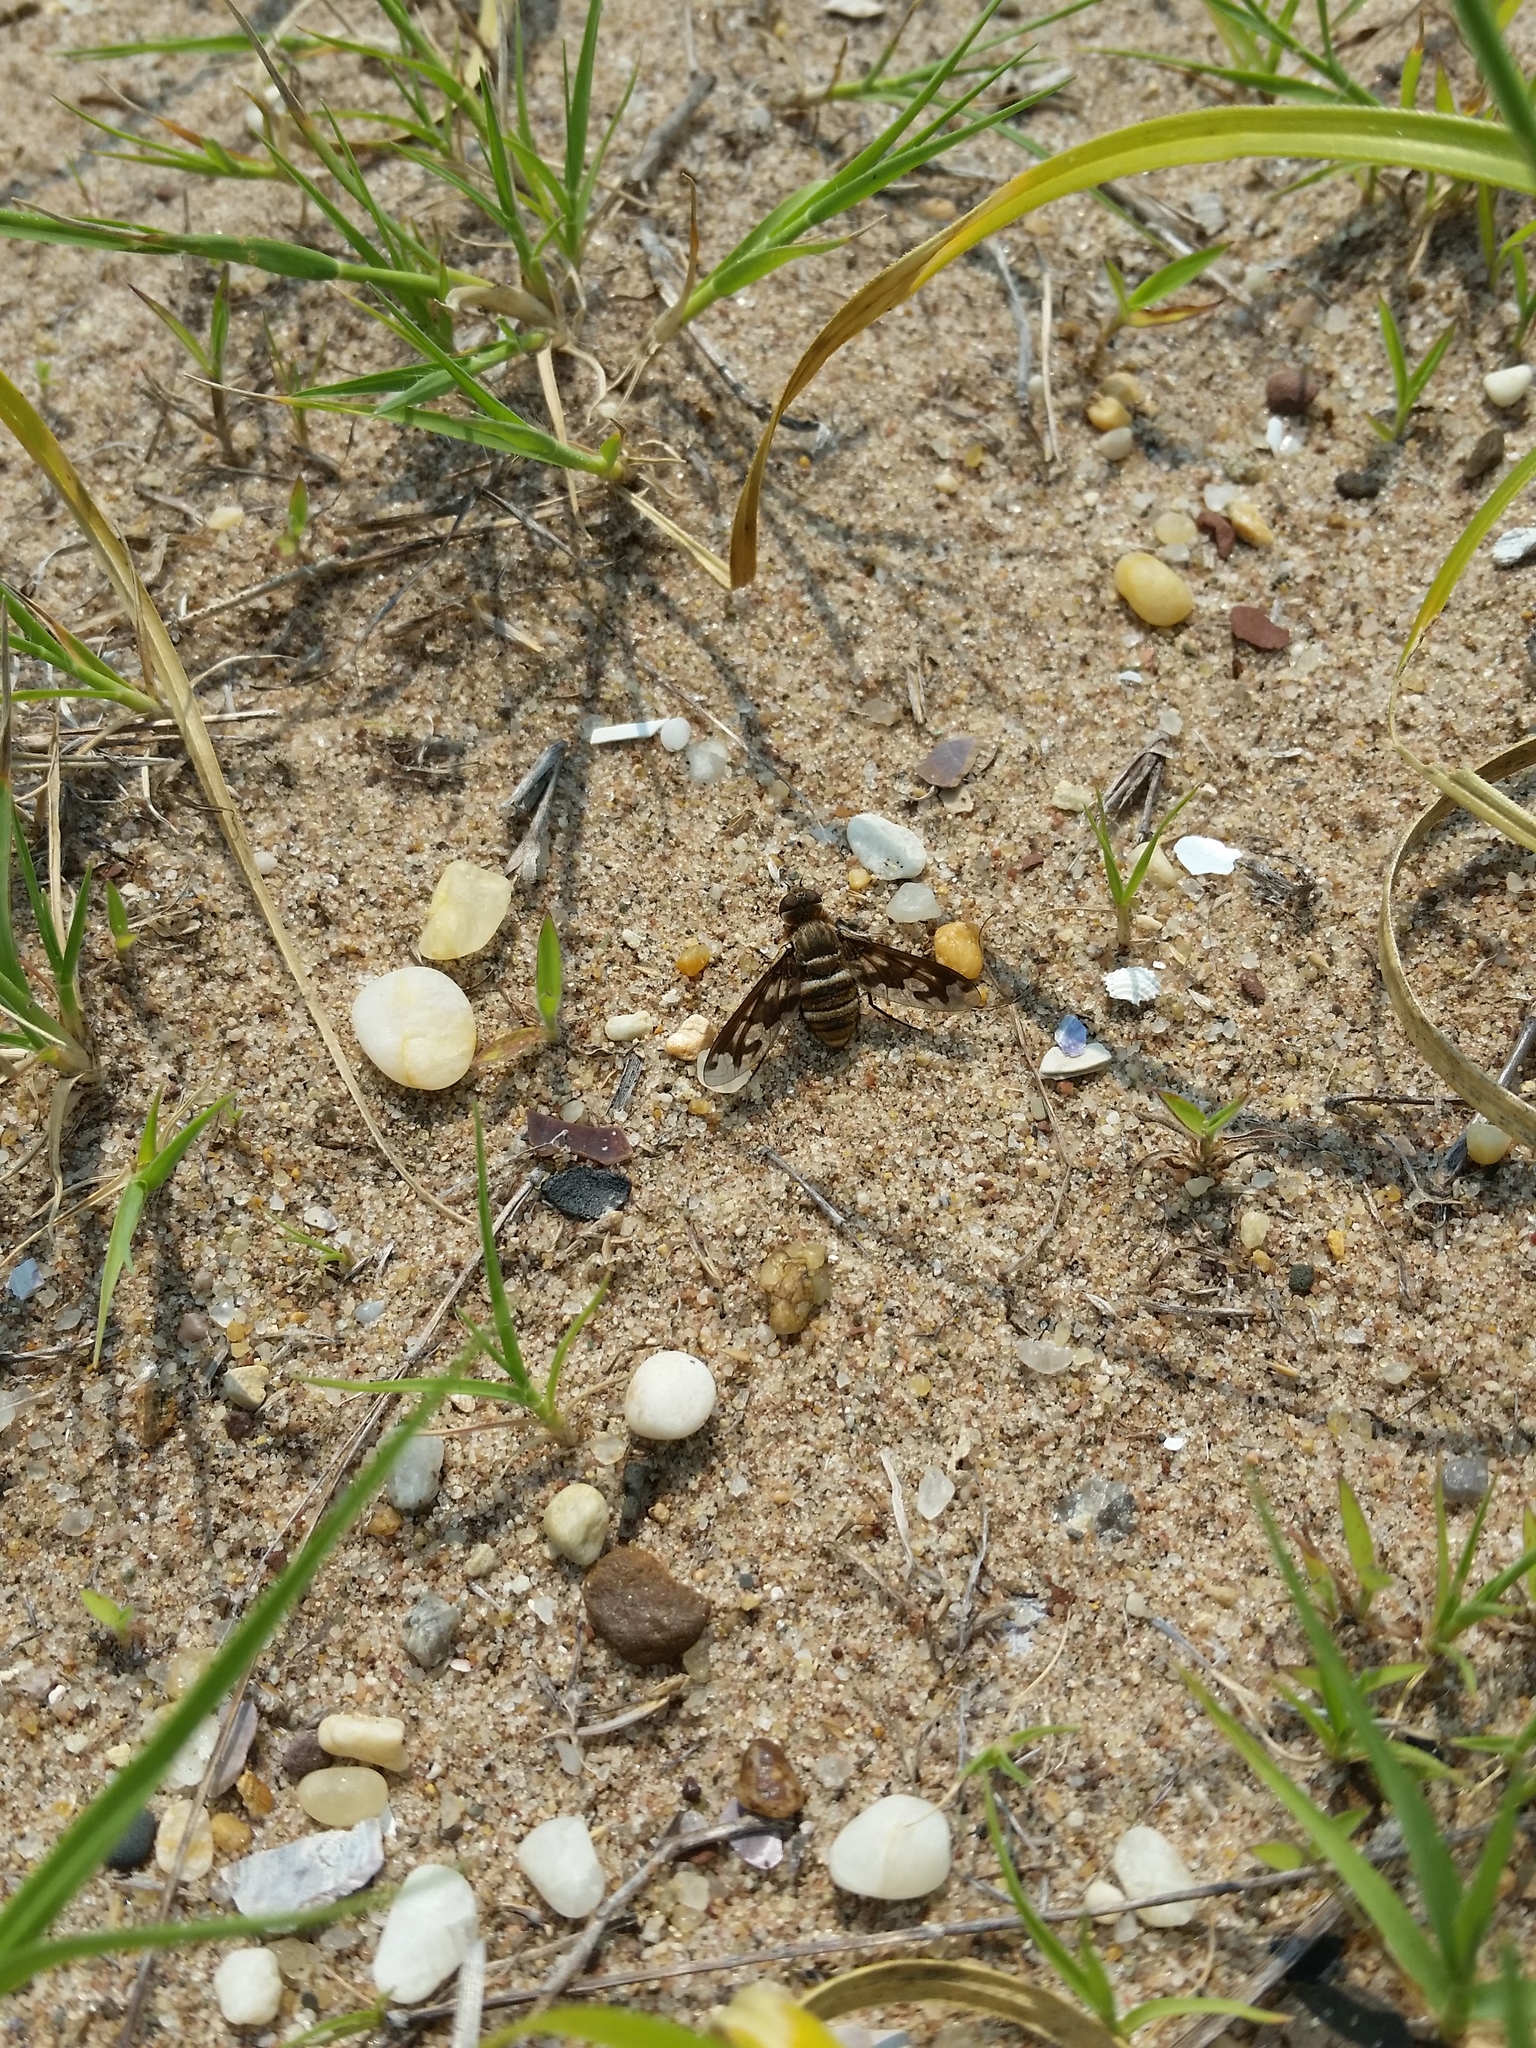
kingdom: Animalia
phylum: Arthropoda
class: Insecta
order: Diptera
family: Bombyliidae
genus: Exoprosopa
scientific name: Exoprosopa fascipennis
